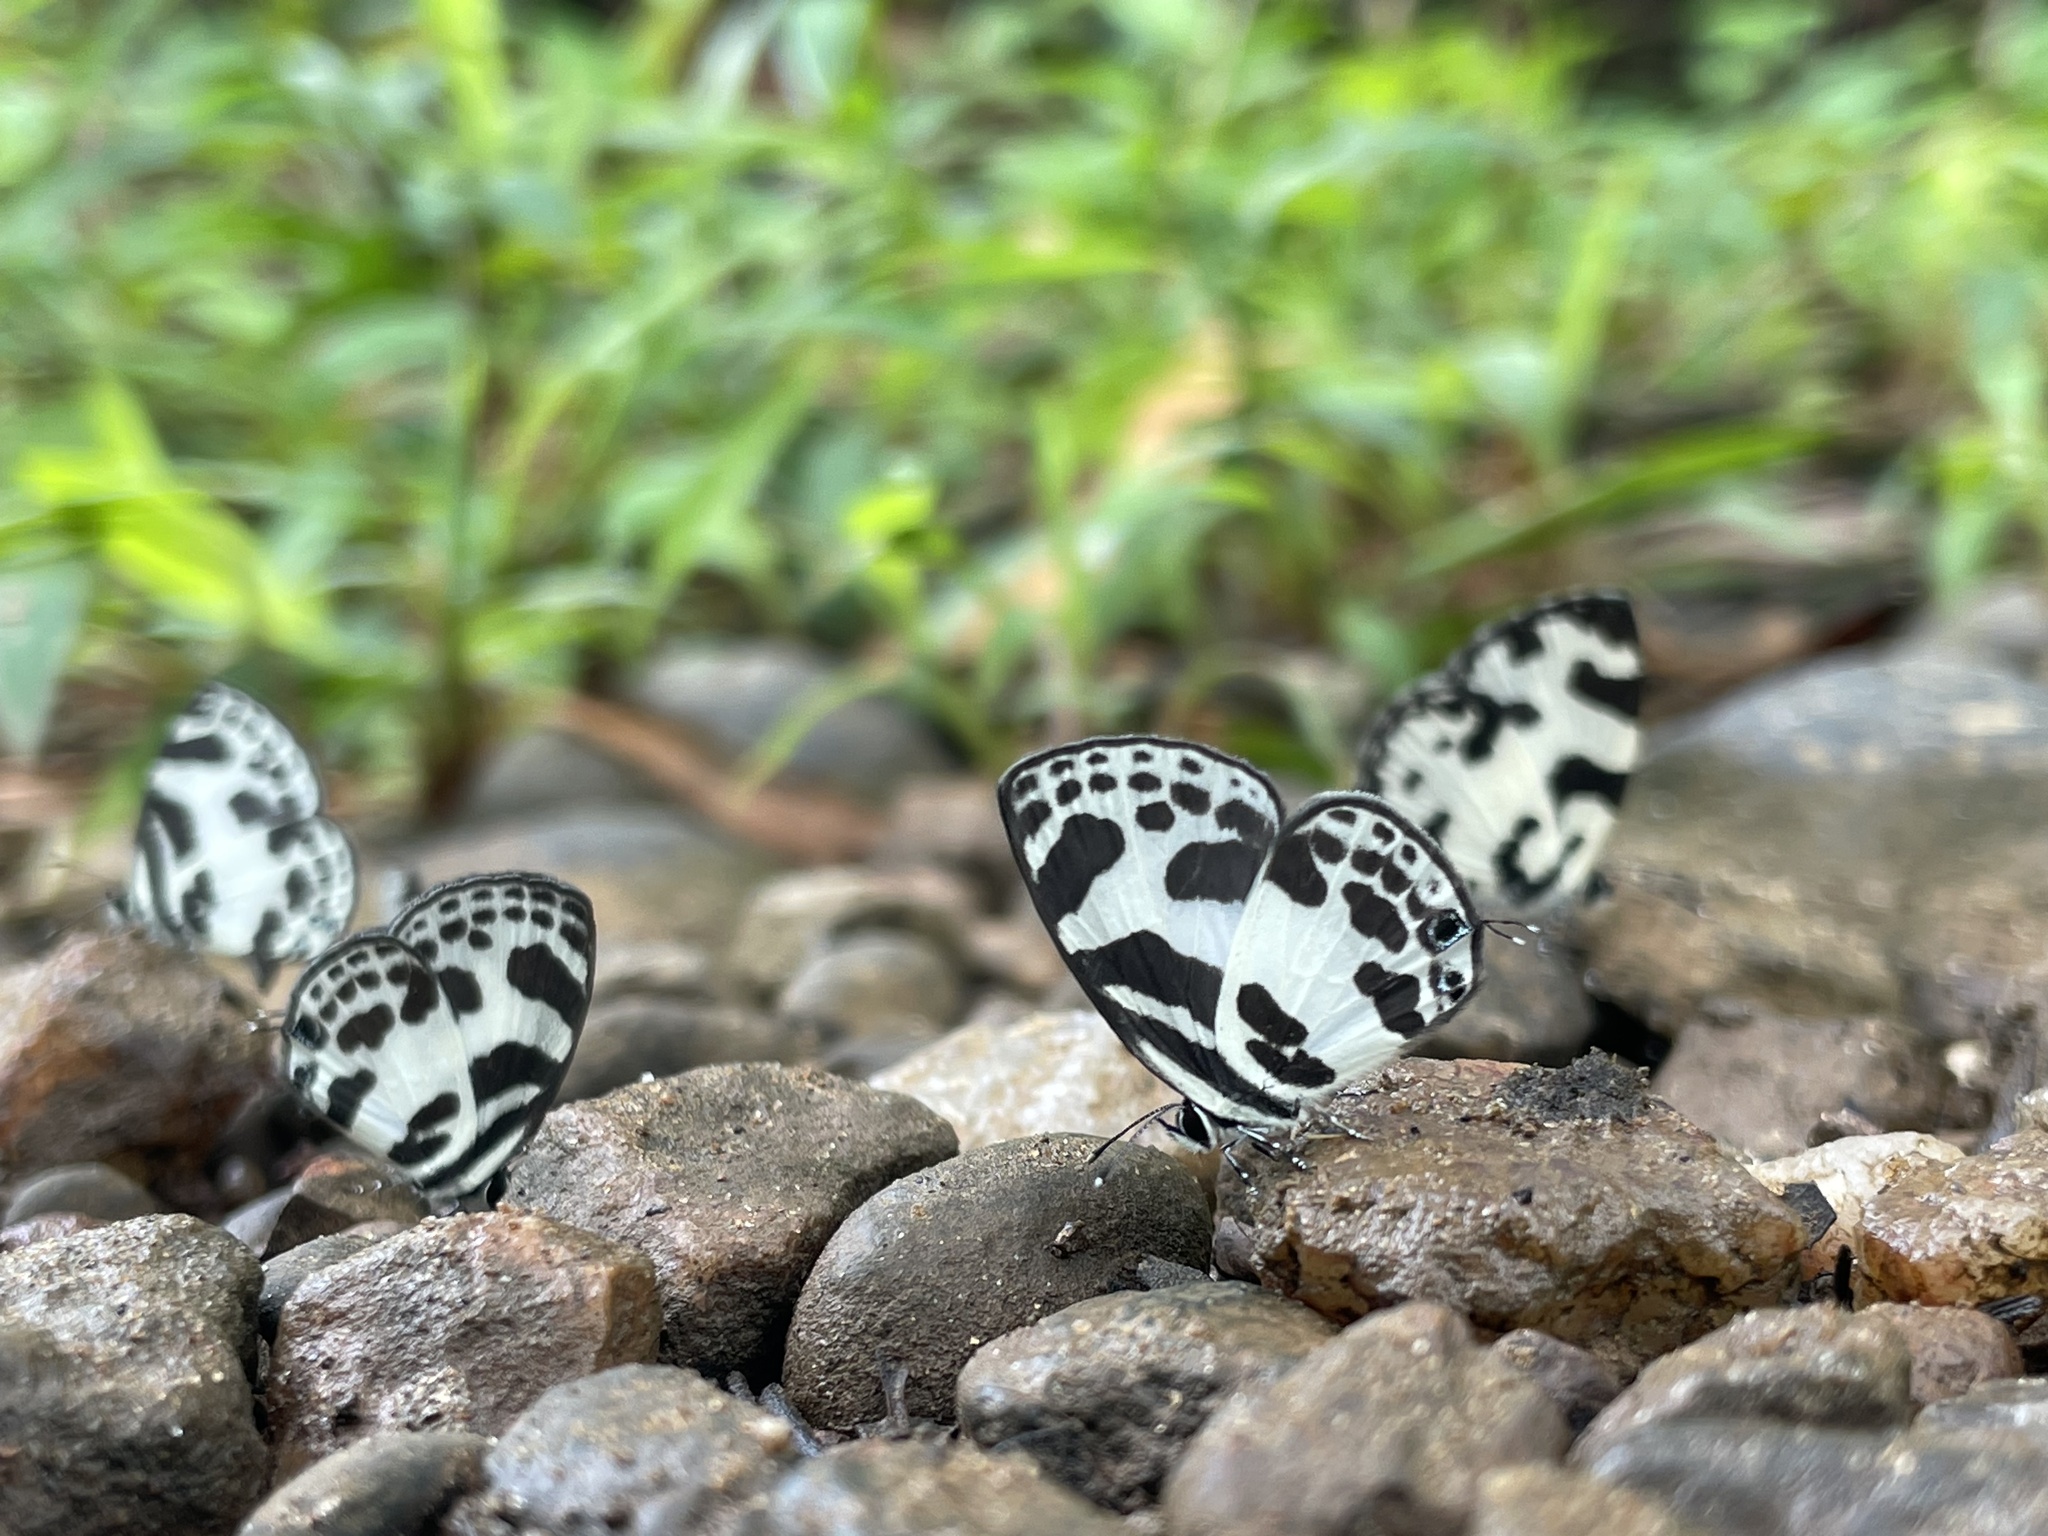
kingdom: Animalia
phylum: Arthropoda
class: Insecta
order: Lepidoptera
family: Lycaenidae
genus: Discolampa
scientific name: Discolampa ethion
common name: Banded blue pierrot
